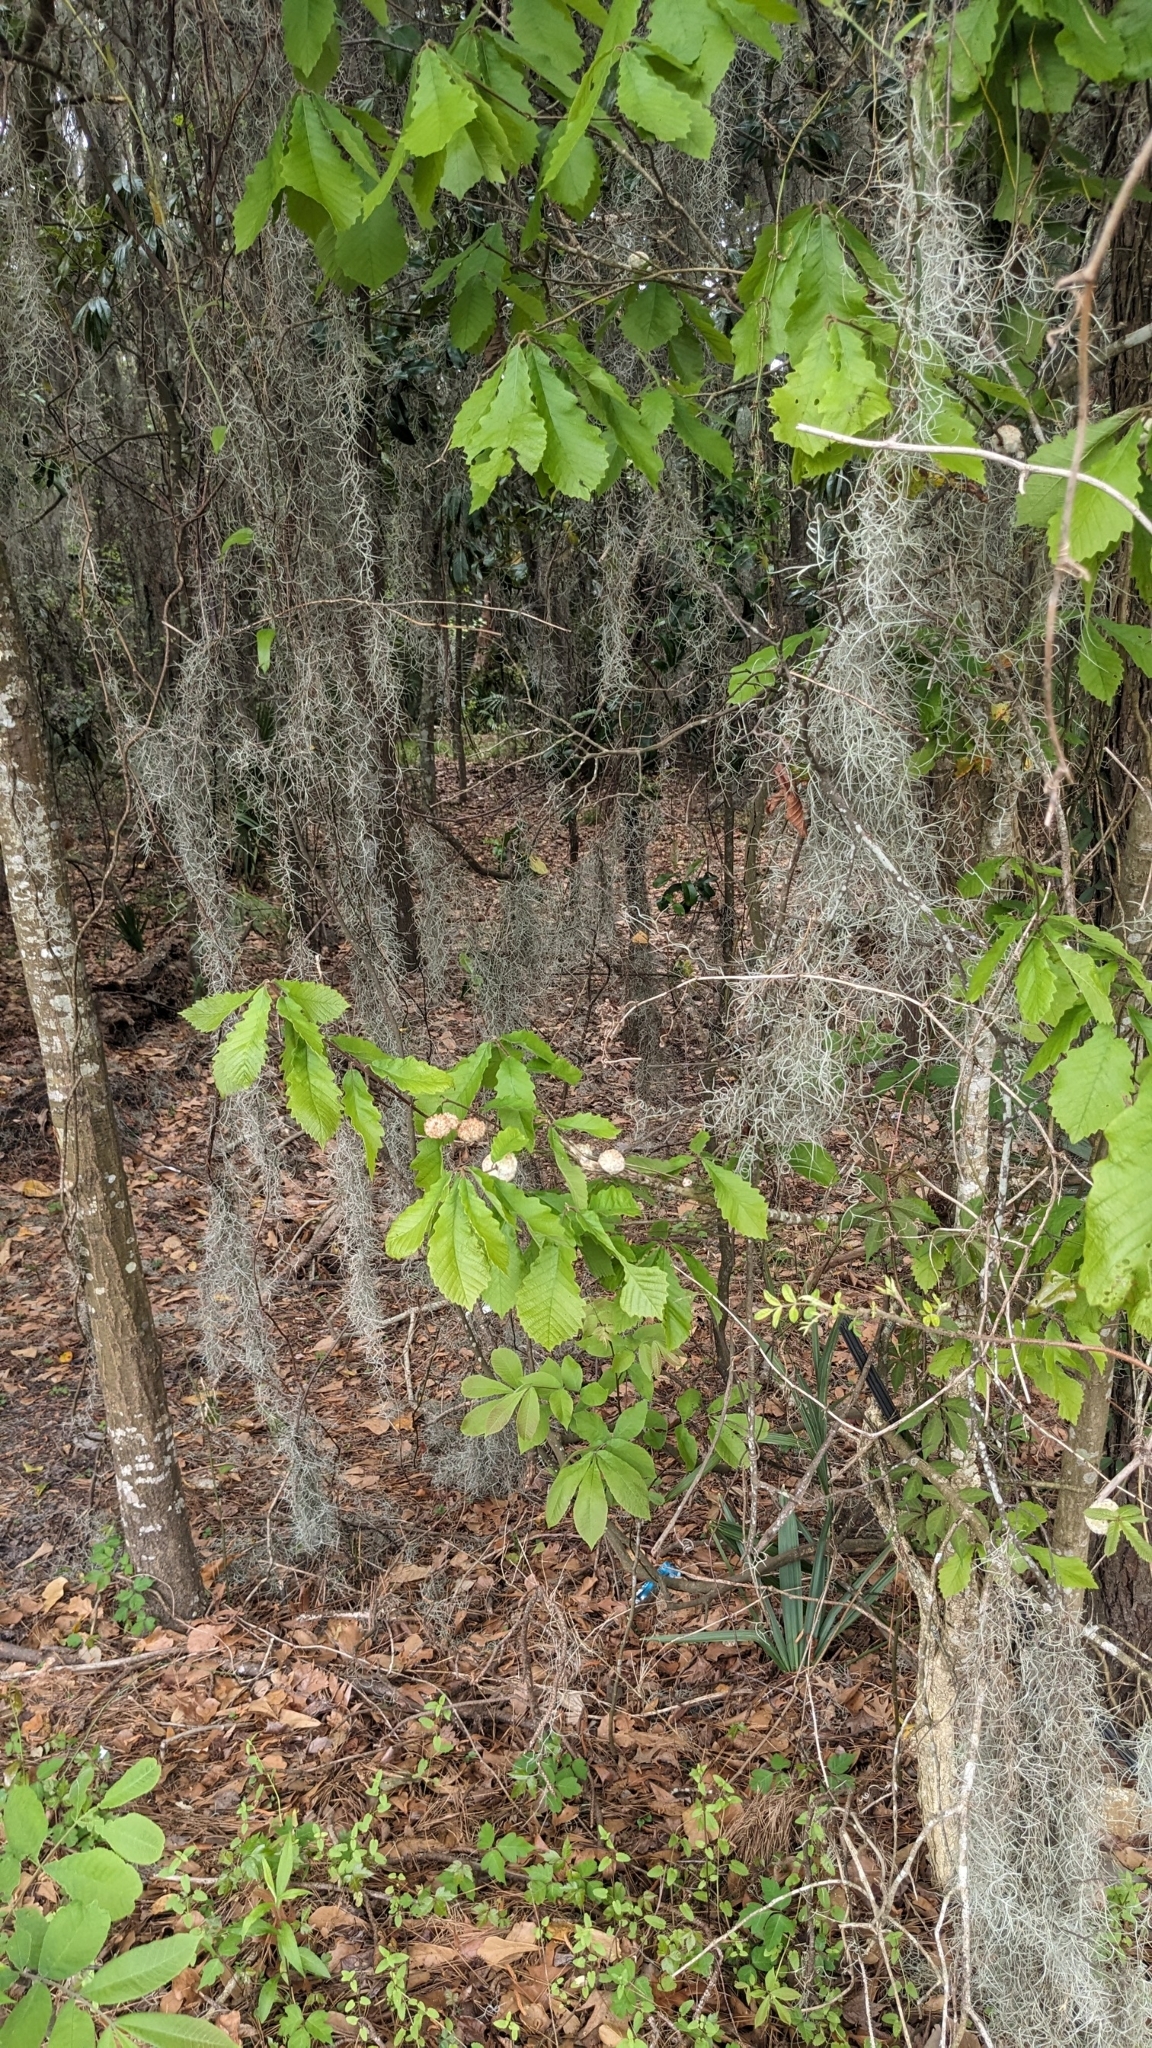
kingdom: Animalia
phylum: Arthropoda
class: Insecta
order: Hymenoptera
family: Cynipidae
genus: Callirhytis
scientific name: Callirhytis
